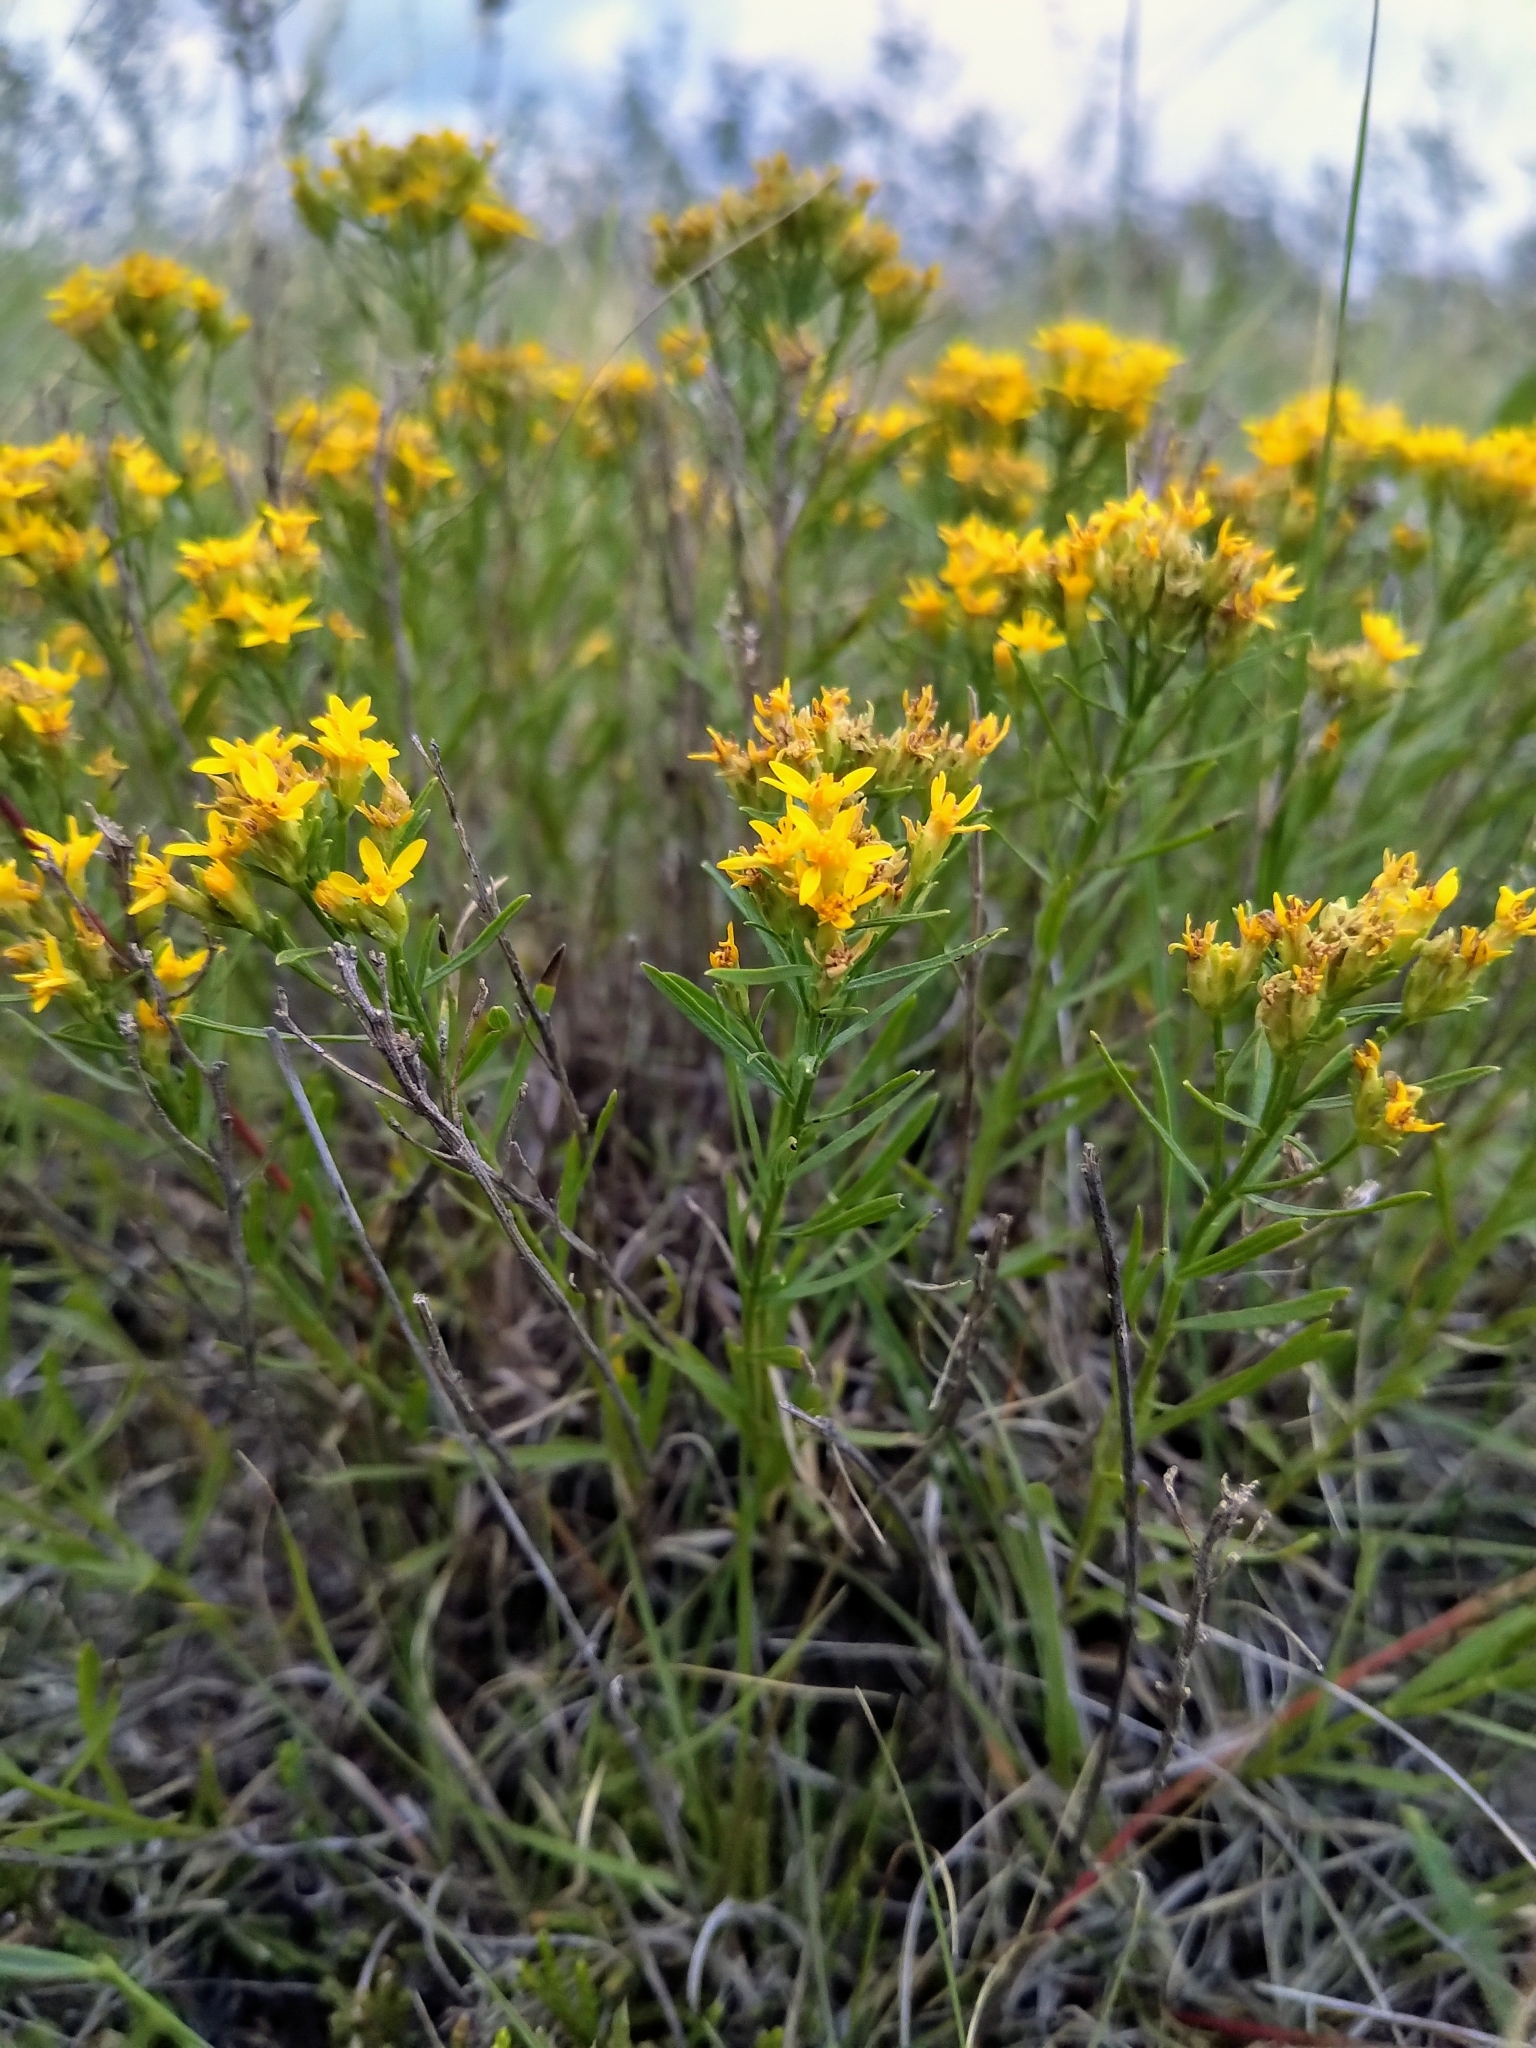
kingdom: Plantae
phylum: Tracheophyta
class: Magnoliopsida
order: Asterales
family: Asteraceae
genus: Gutierrezia
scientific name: Gutierrezia sarothrae
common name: Broom snakeweed
